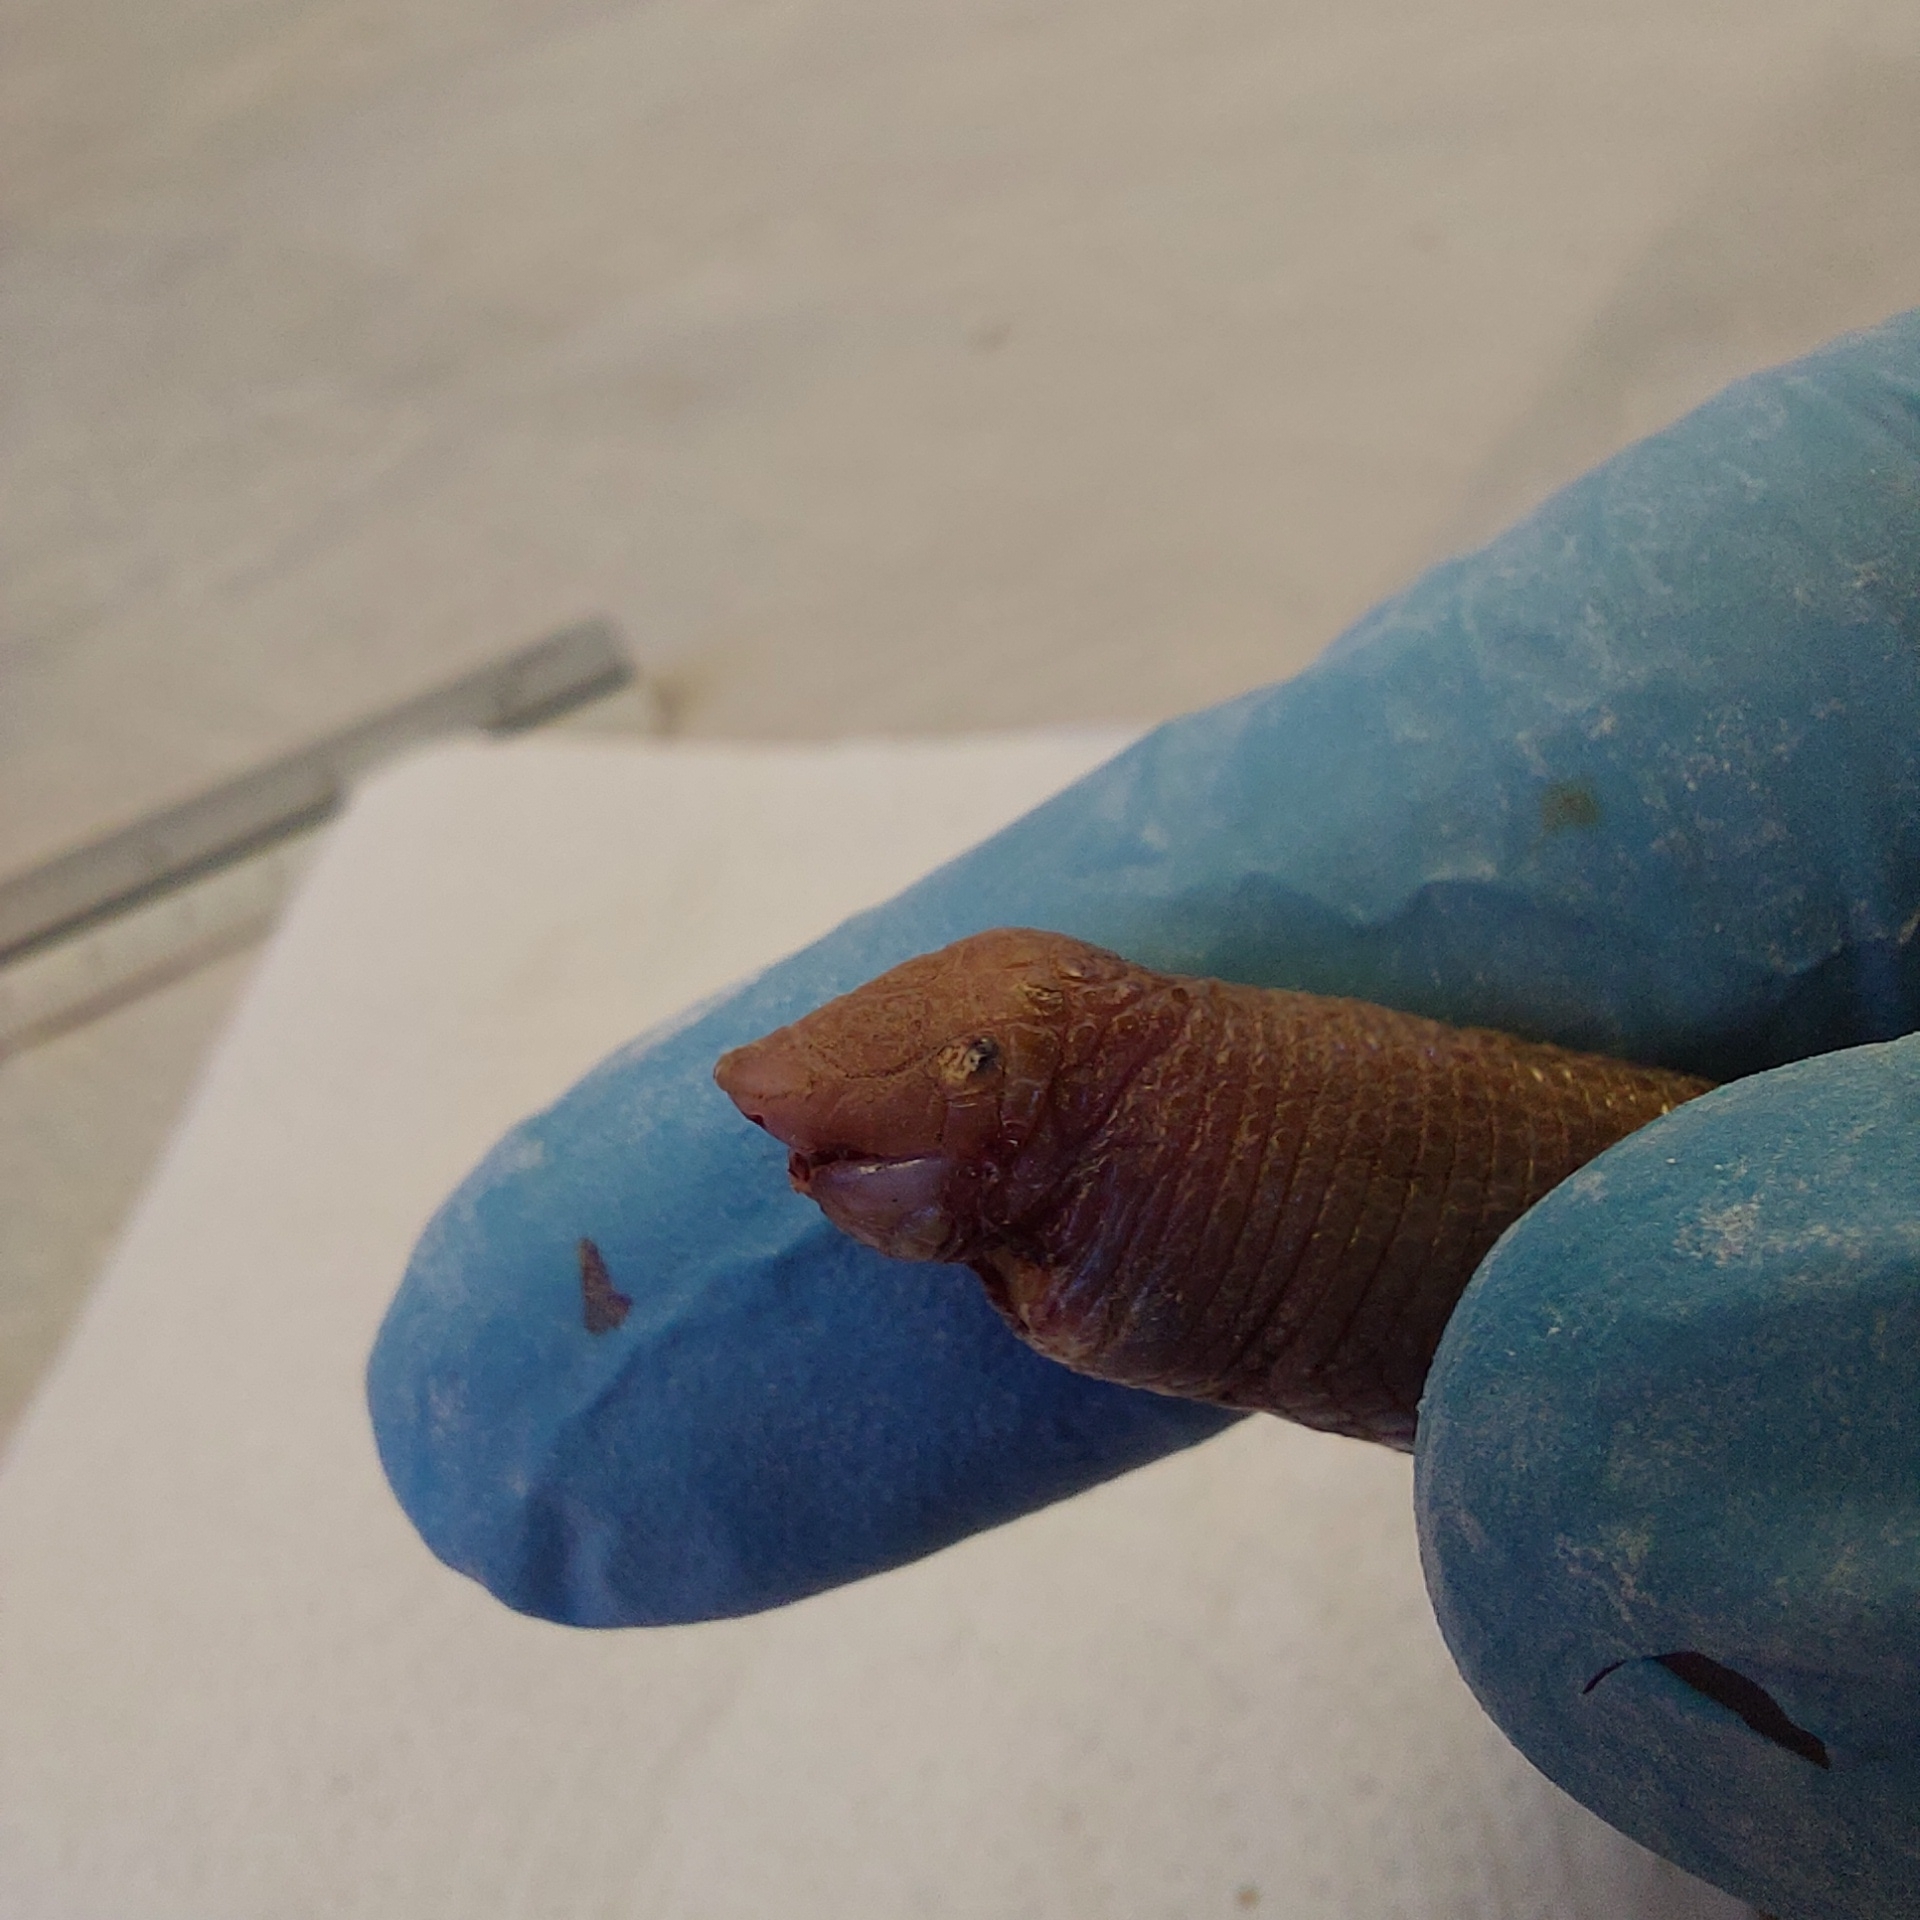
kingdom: Animalia
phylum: Chordata
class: Squamata
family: Amphisbaenidae
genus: Leposternon
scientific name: Leposternon microcephalum
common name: Smallhead worm lizard
